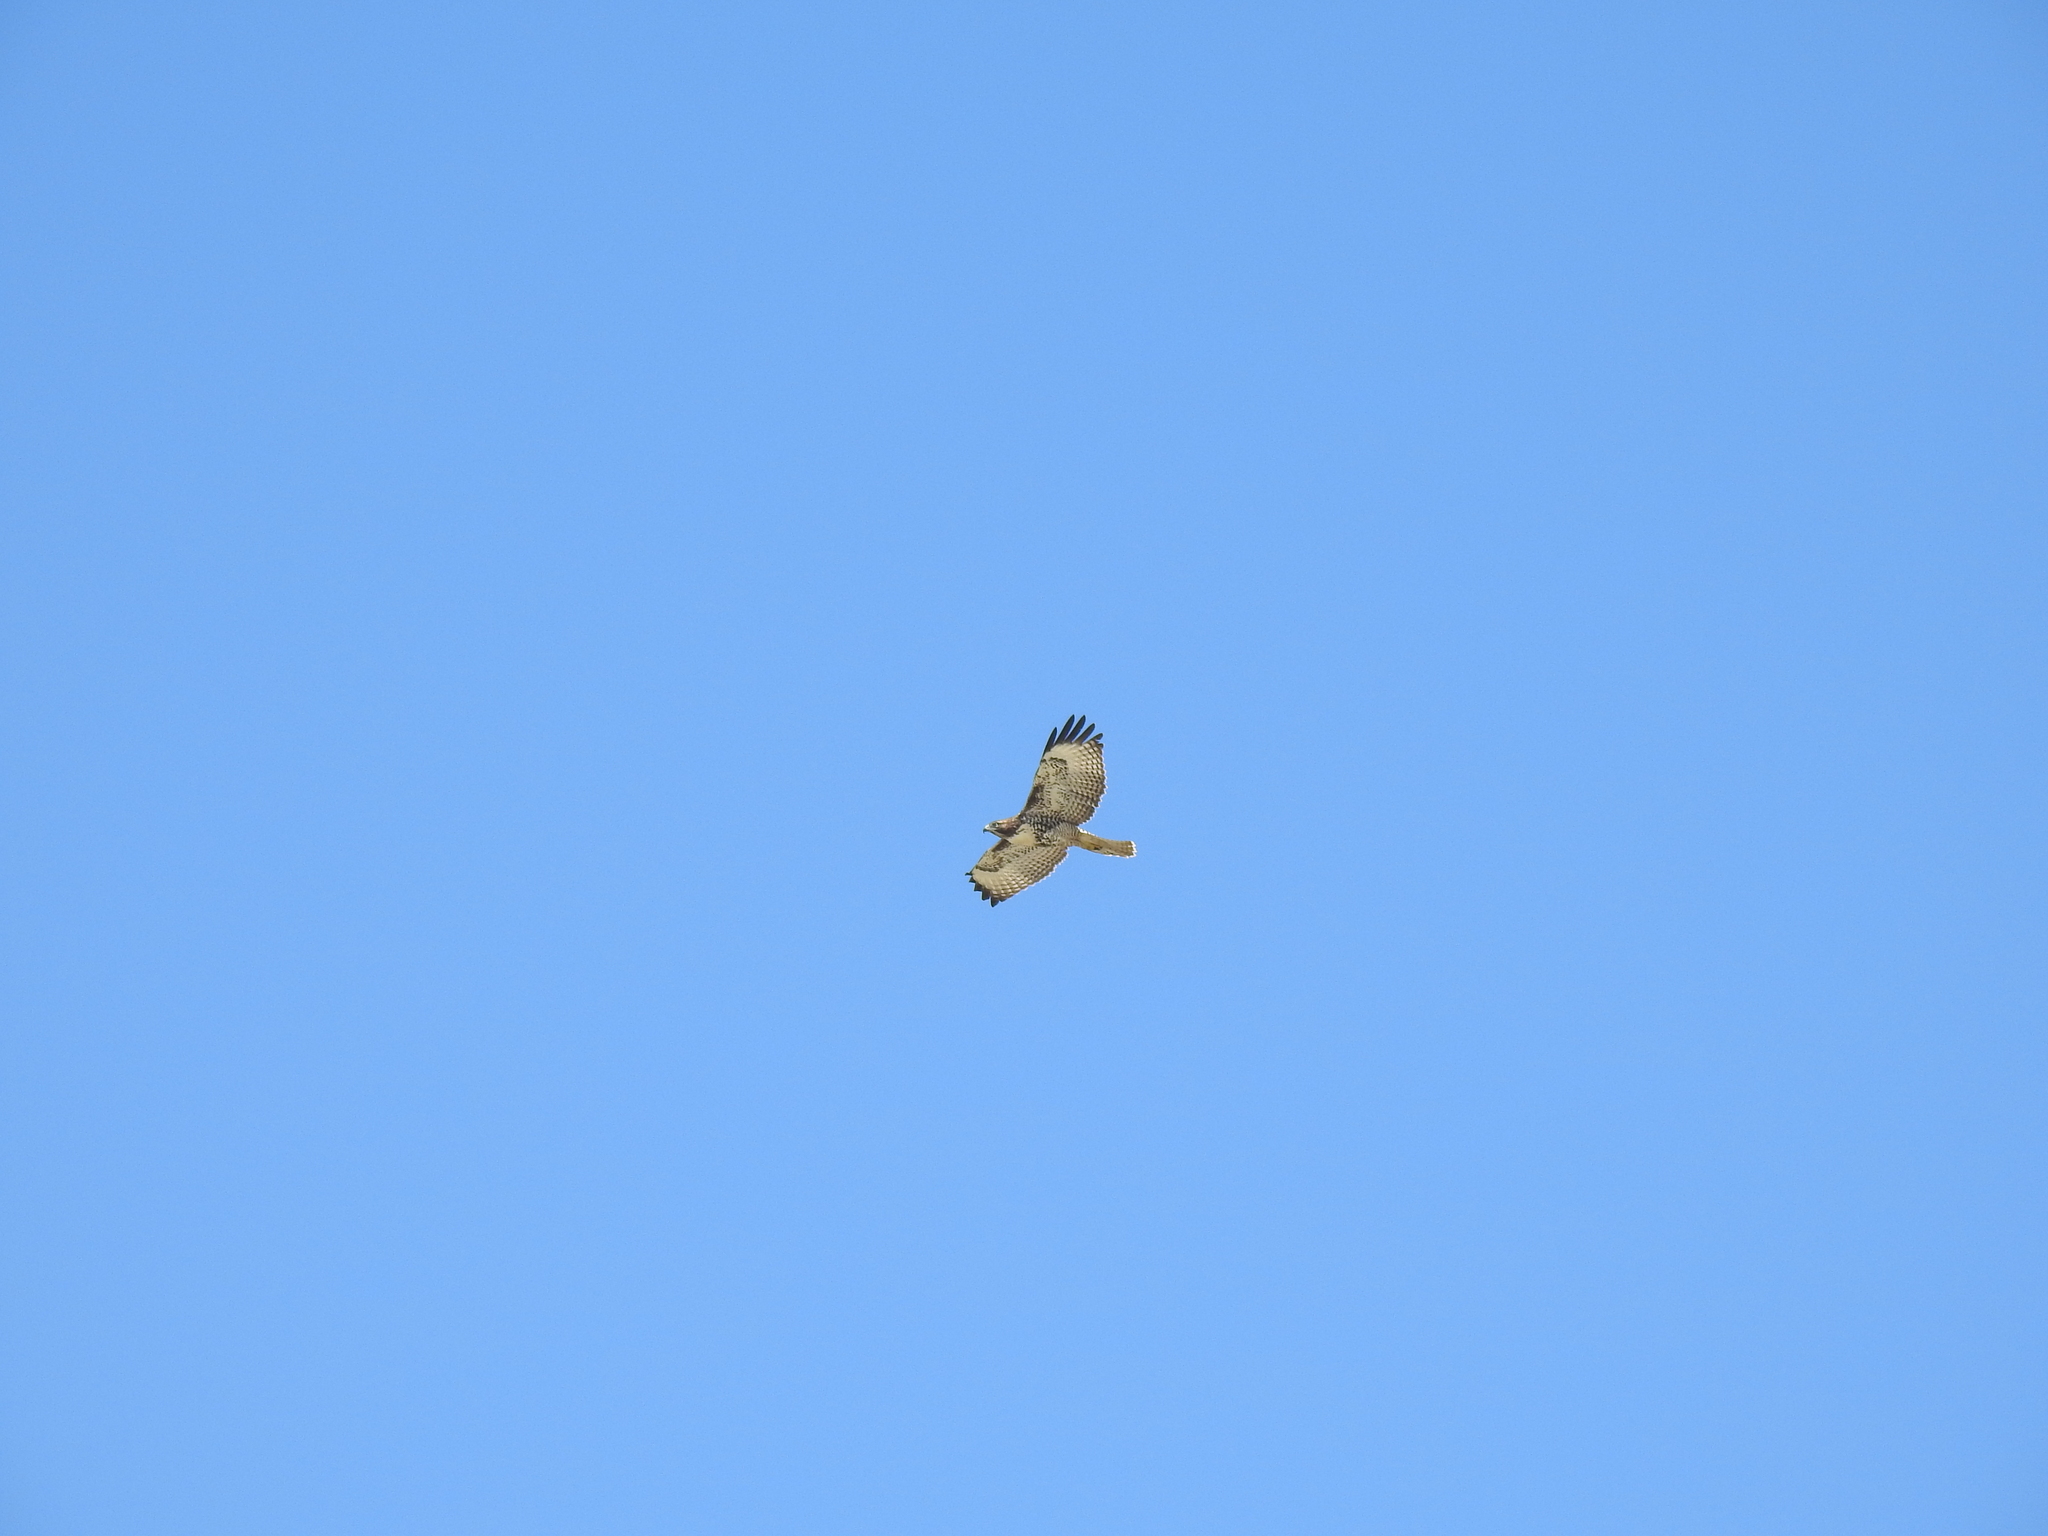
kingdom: Animalia
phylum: Chordata
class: Aves
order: Accipitriformes
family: Accipitridae
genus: Buteo
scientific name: Buteo jamaicensis
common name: Red-tailed hawk
